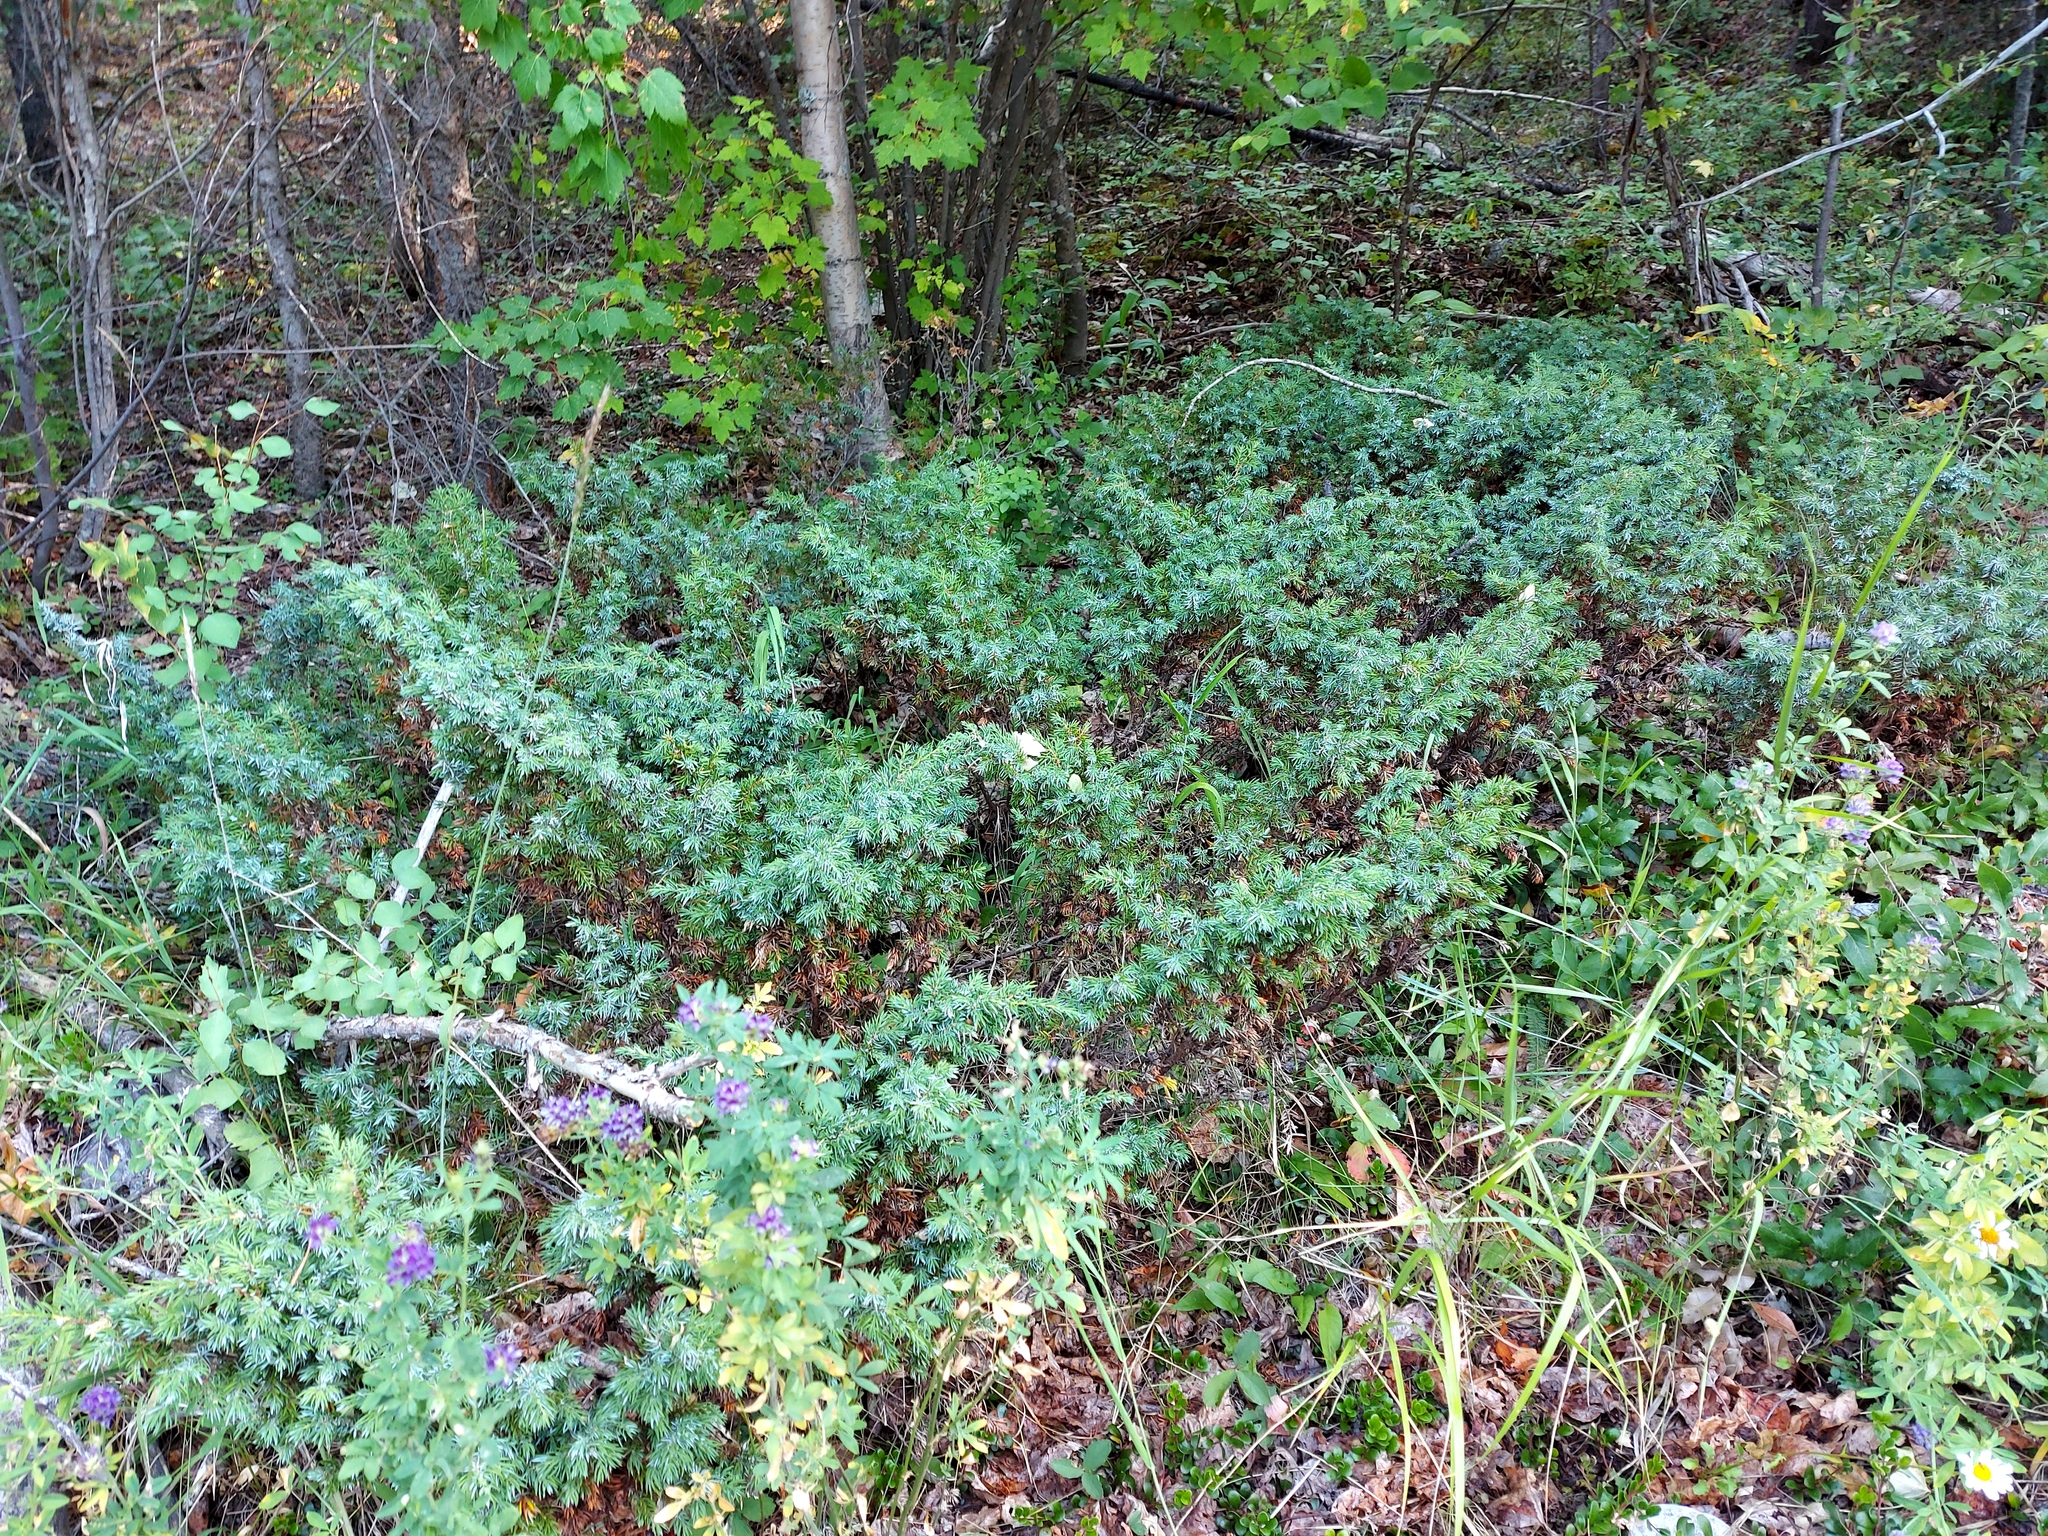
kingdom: Plantae
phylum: Tracheophyta
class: Pinopsida
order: Pinales
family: Cupressaceae
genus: Juniperus
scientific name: Juniperus communis
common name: Common juniper
